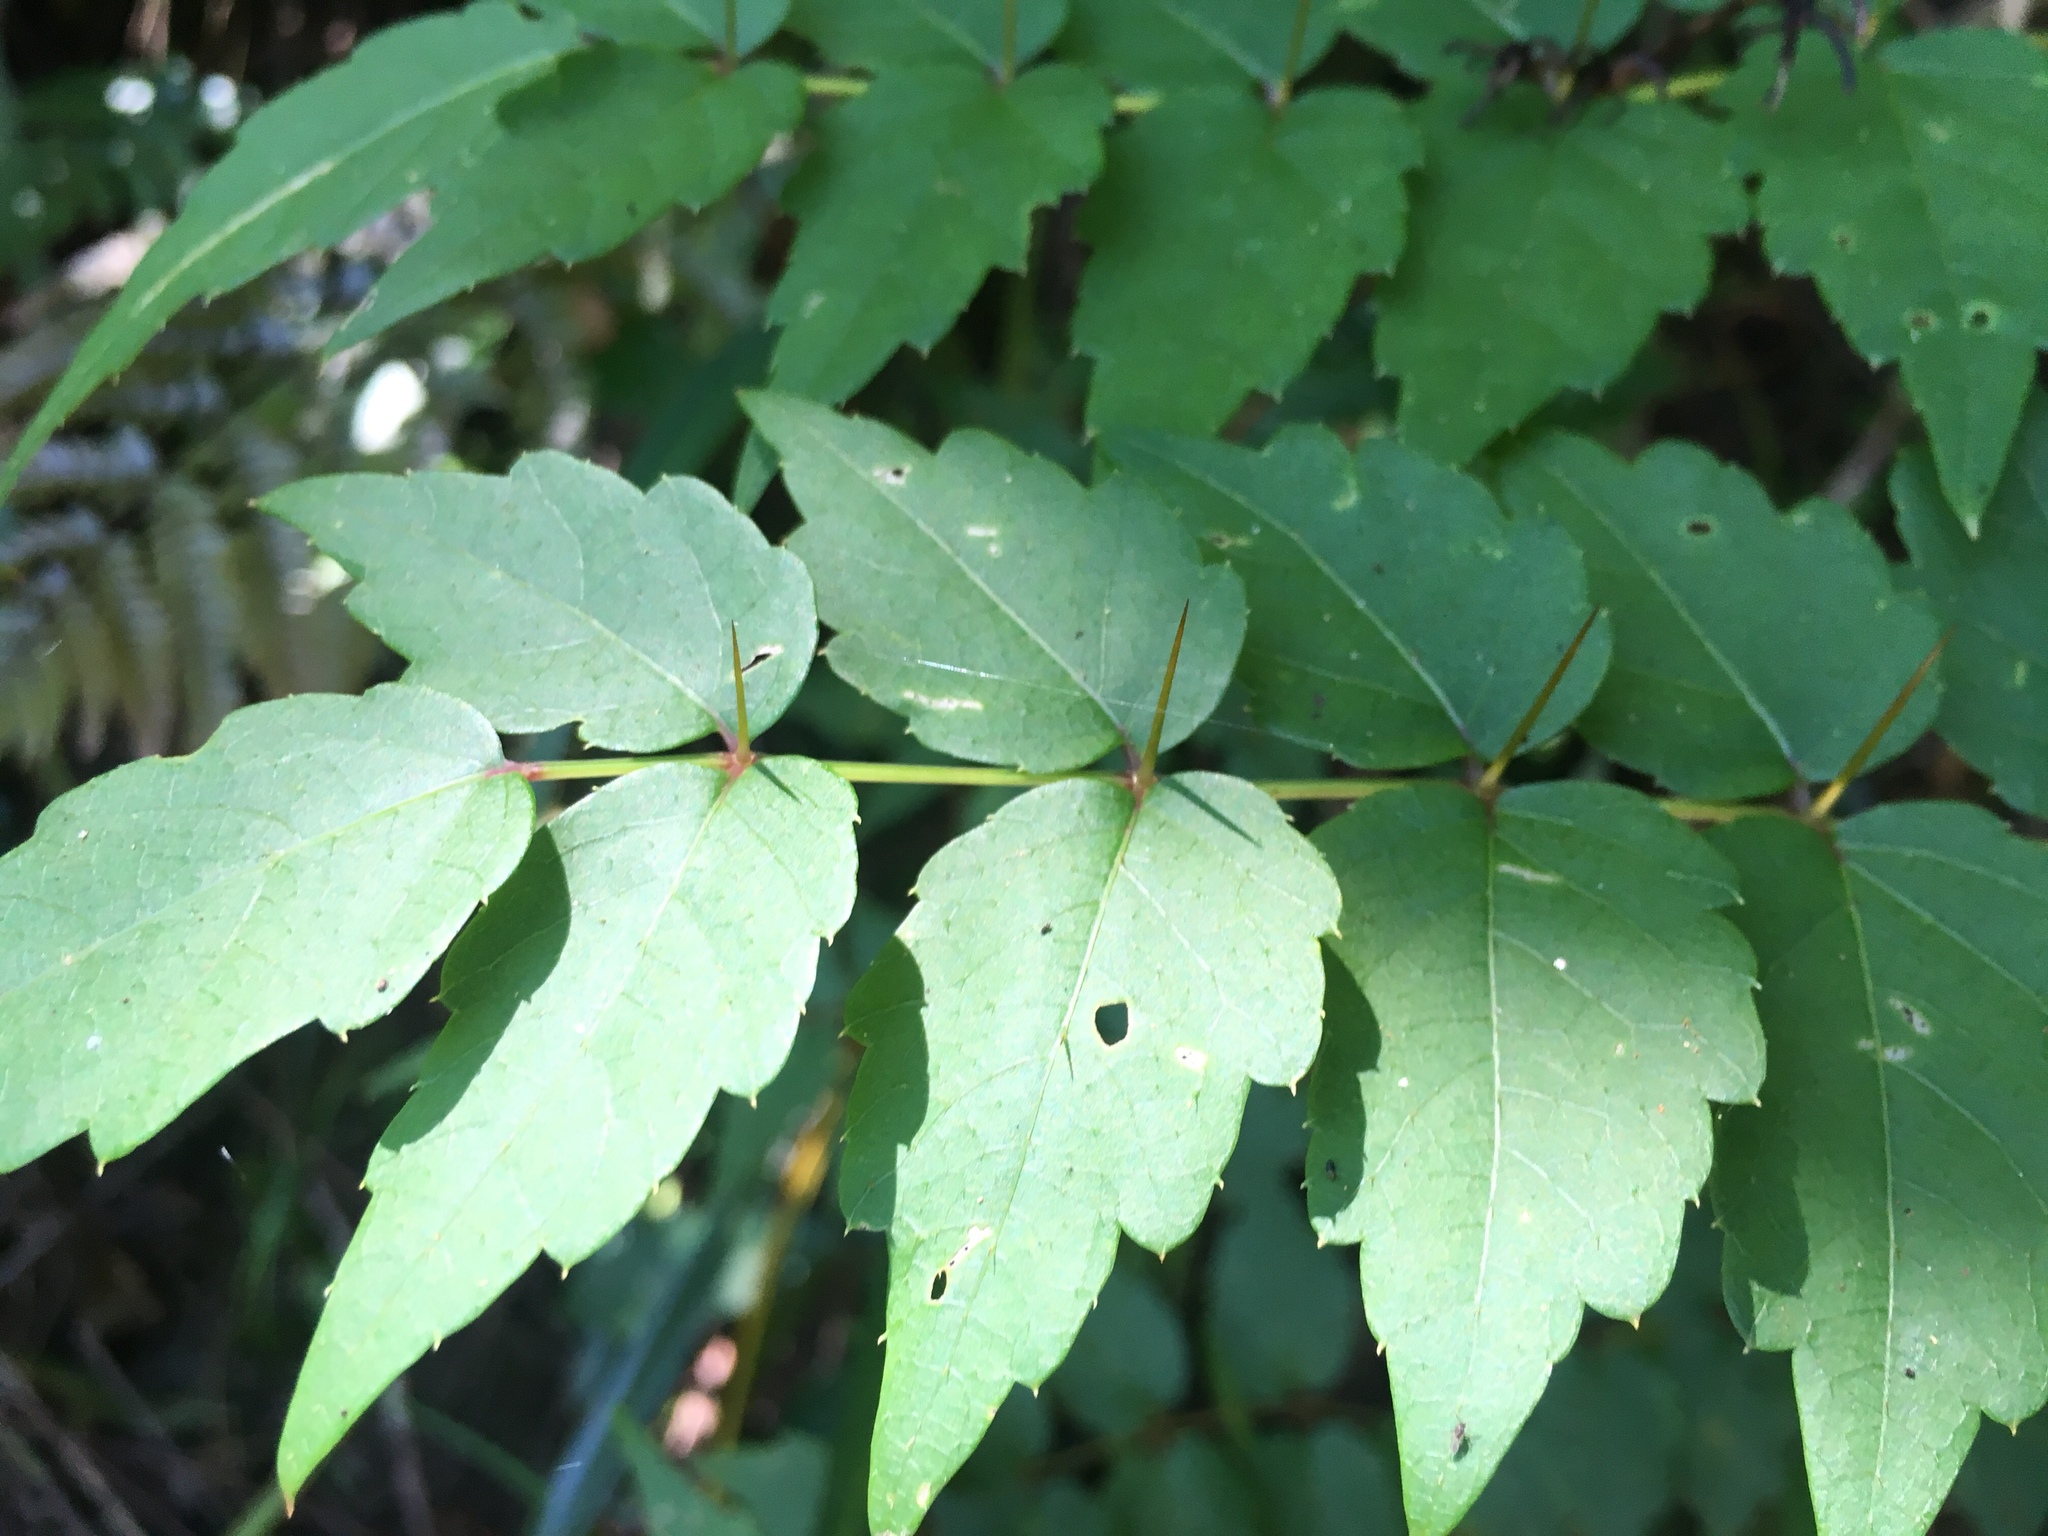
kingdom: Plantae
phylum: Tracheophyta
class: Magnoliopsida
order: Apiales
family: Araliaceae
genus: Aralia
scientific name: Aralia decaisneana
